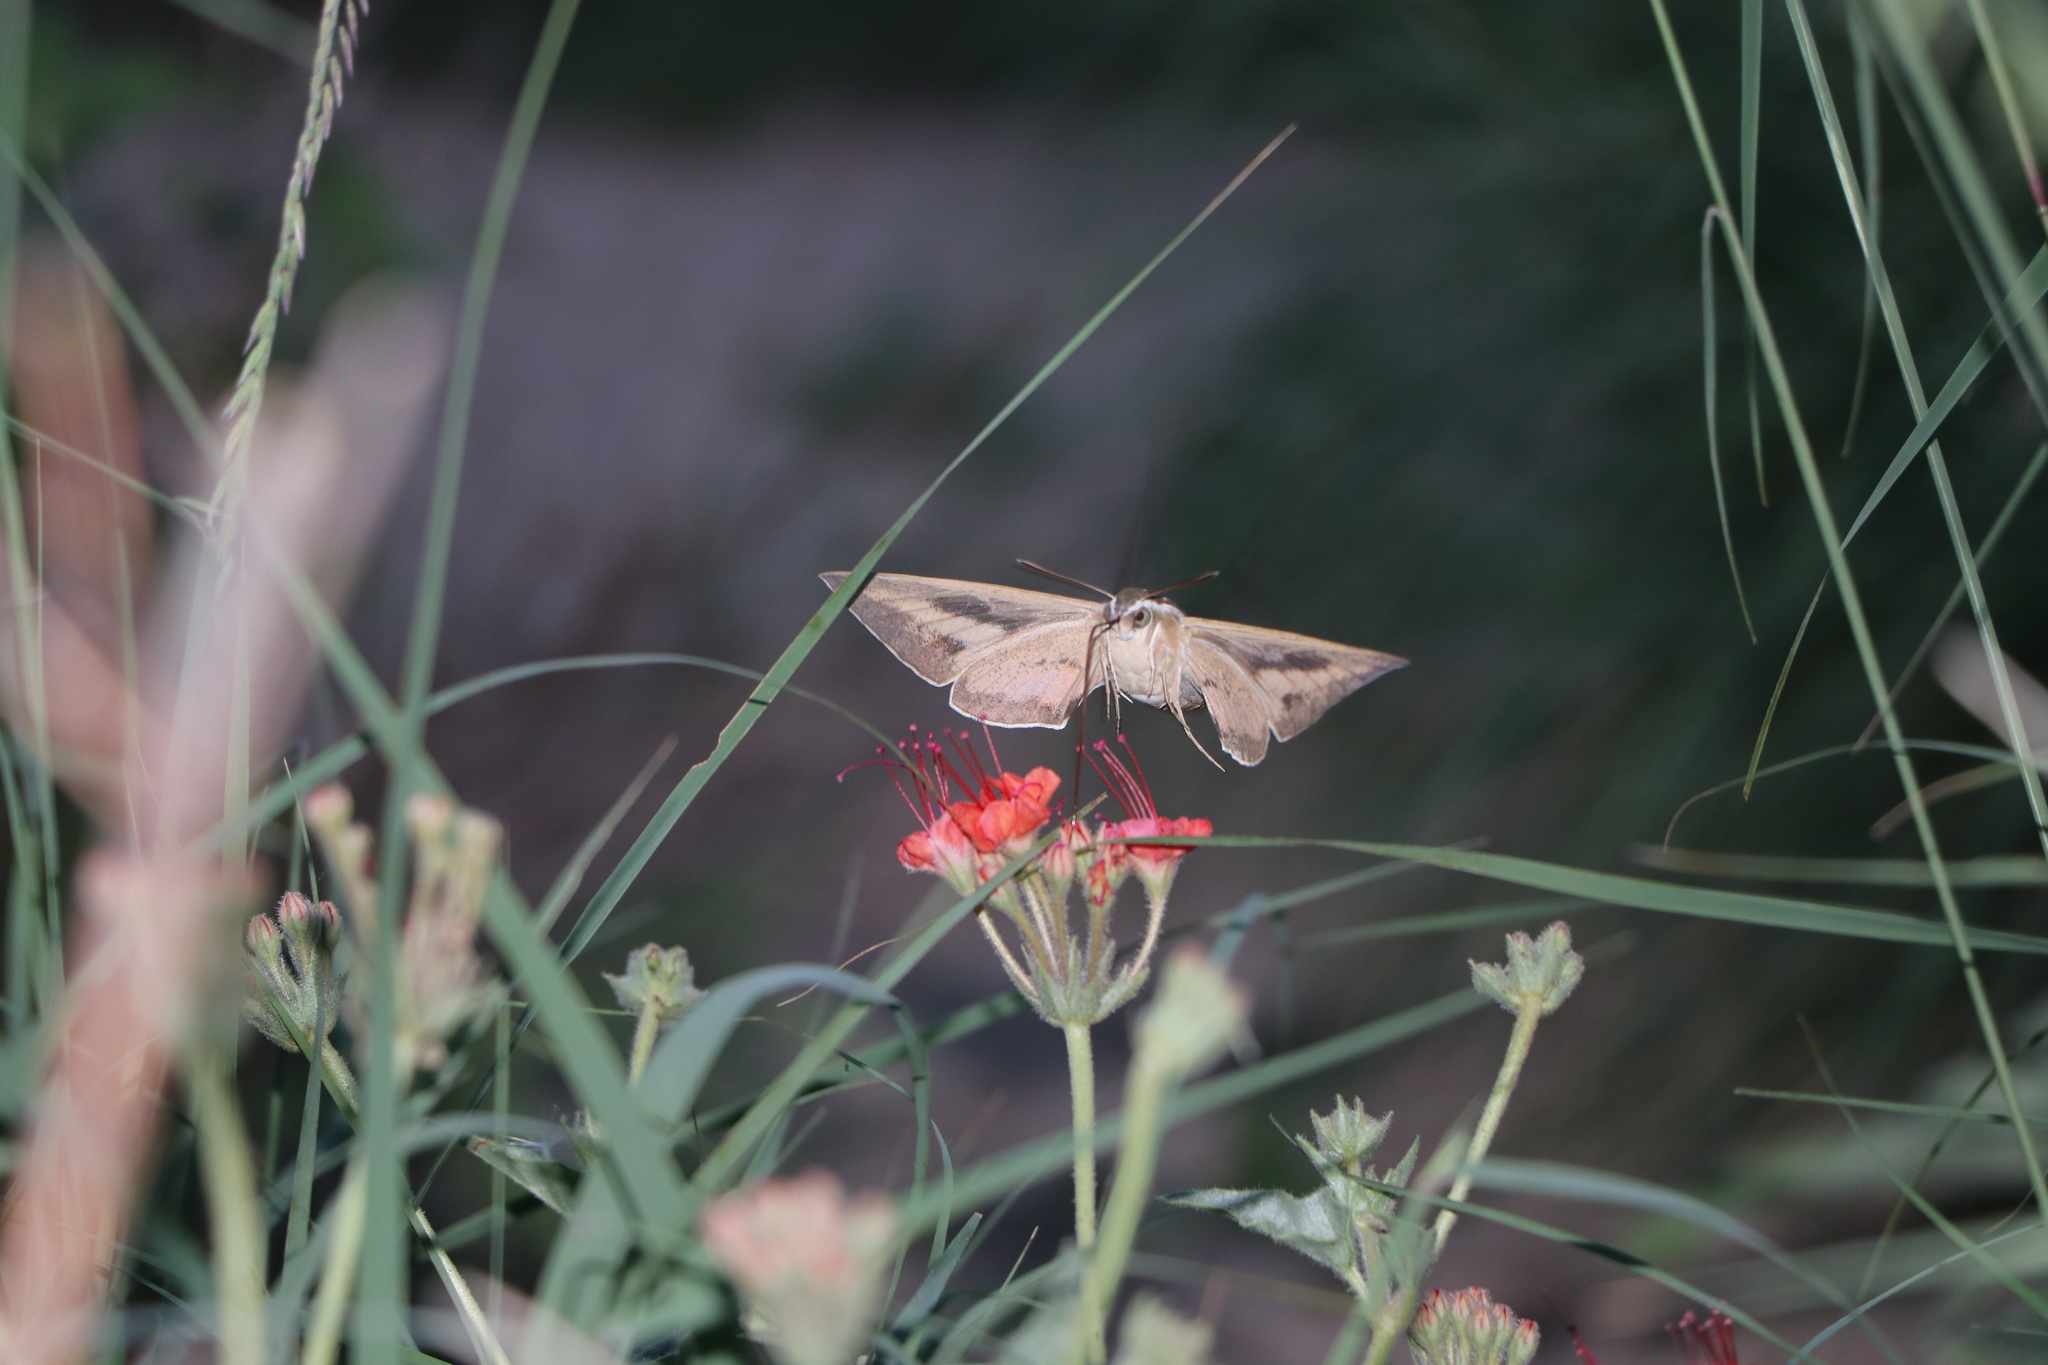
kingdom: Animalia
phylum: Arthropoda
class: Insecta
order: Lepidoptera
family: Sphingidae
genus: Hyles
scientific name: Hyles lineata
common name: White-lined sphinx
